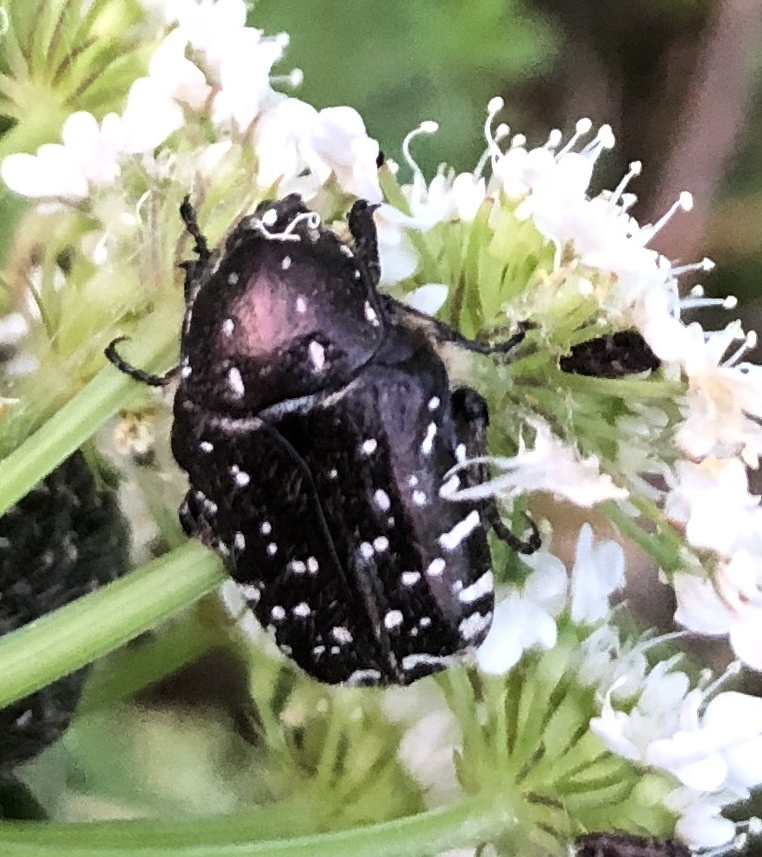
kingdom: Animalia
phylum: Arthropoda
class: Insecta
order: Coleoptera
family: Scarabaeidae
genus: Oxythyrea
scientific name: Oxythyrea funesta
